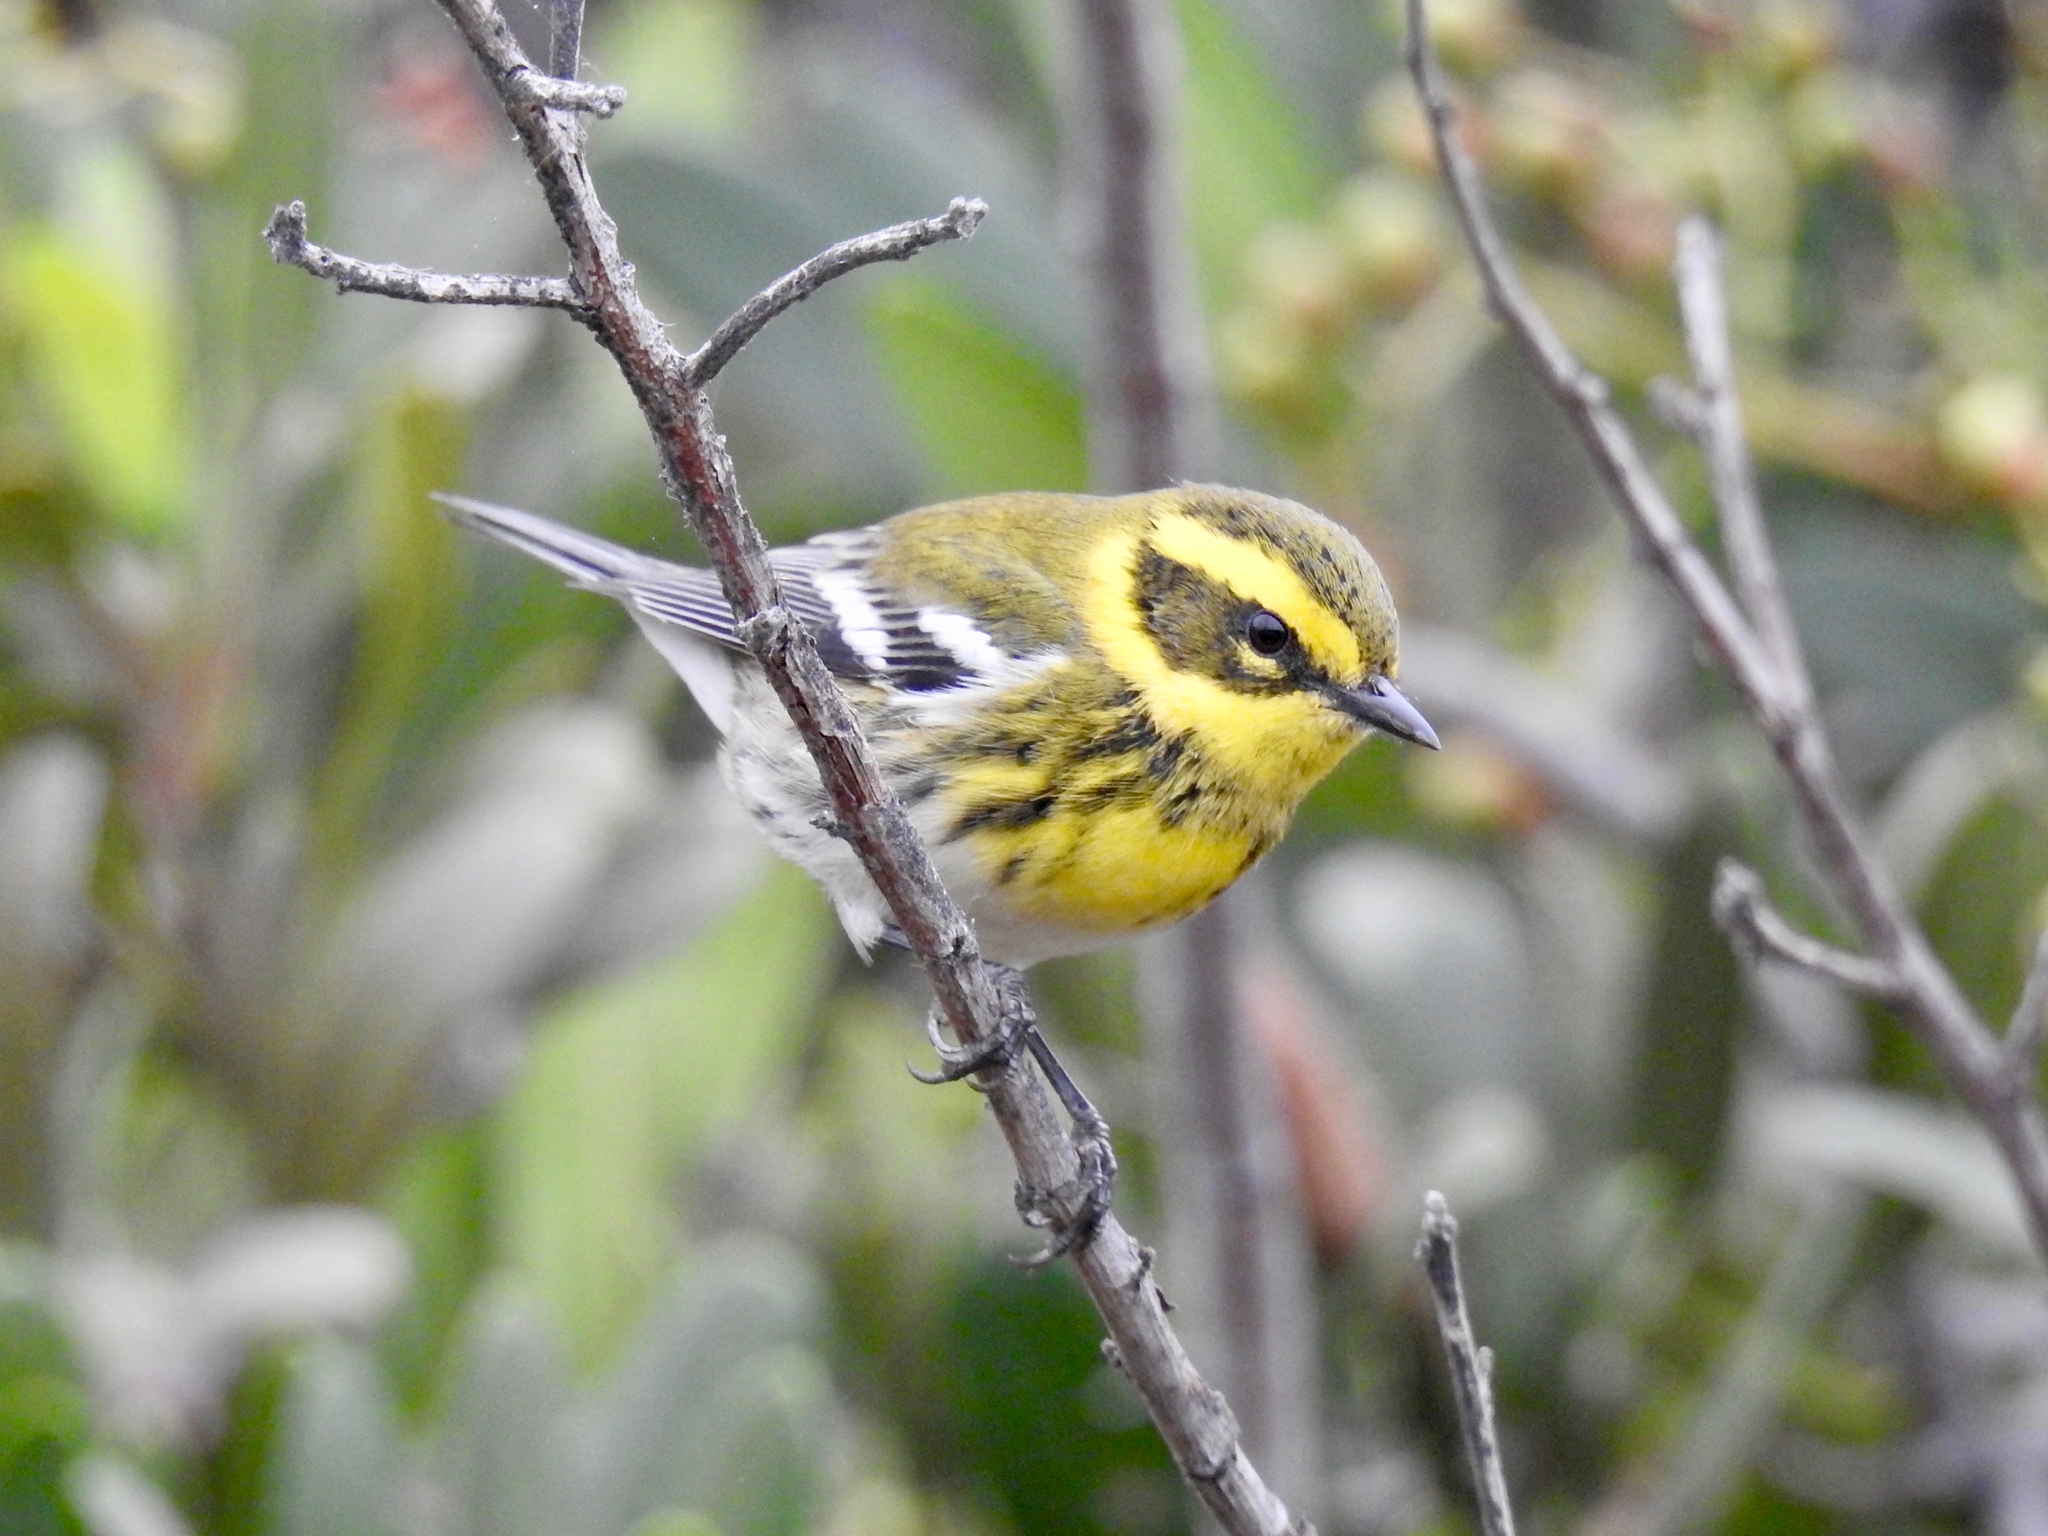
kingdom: Animalia
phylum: Chordata
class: Aves
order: Passeriformes
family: Parulidae
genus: Setophaga
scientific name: Setophaga townsendi
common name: Townsend's warbler
